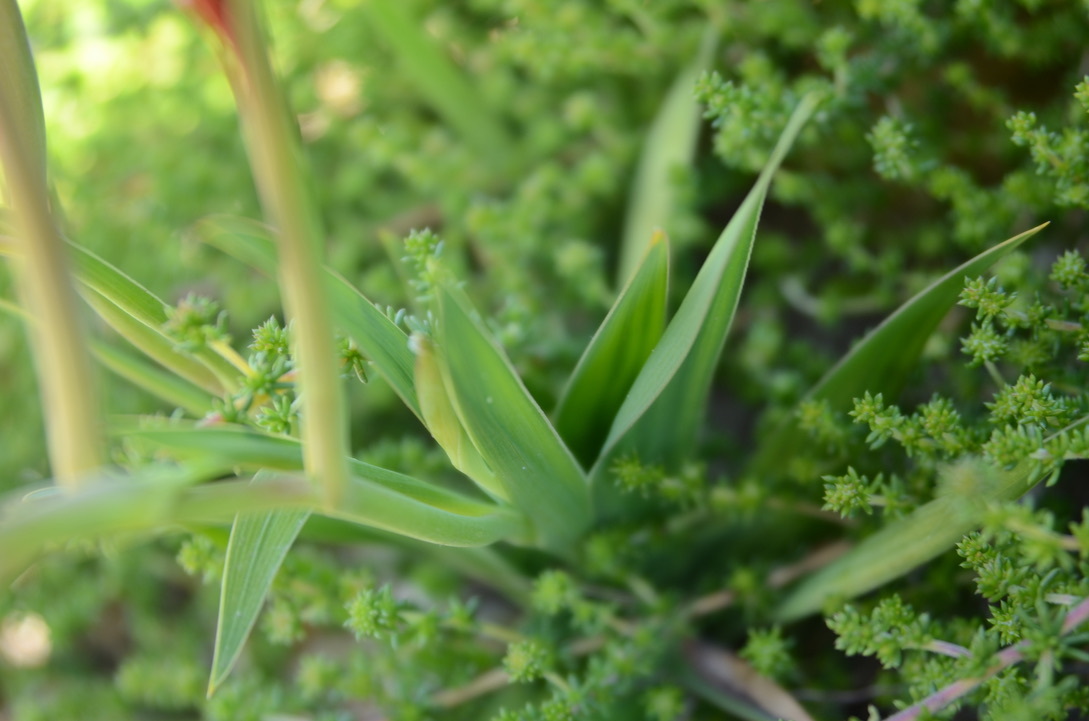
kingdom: Plantae
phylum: Tracheophyta
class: Liliopsida
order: Asparagales
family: Iridaceae
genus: Gladiolus
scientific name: Gladiolus miniatus
